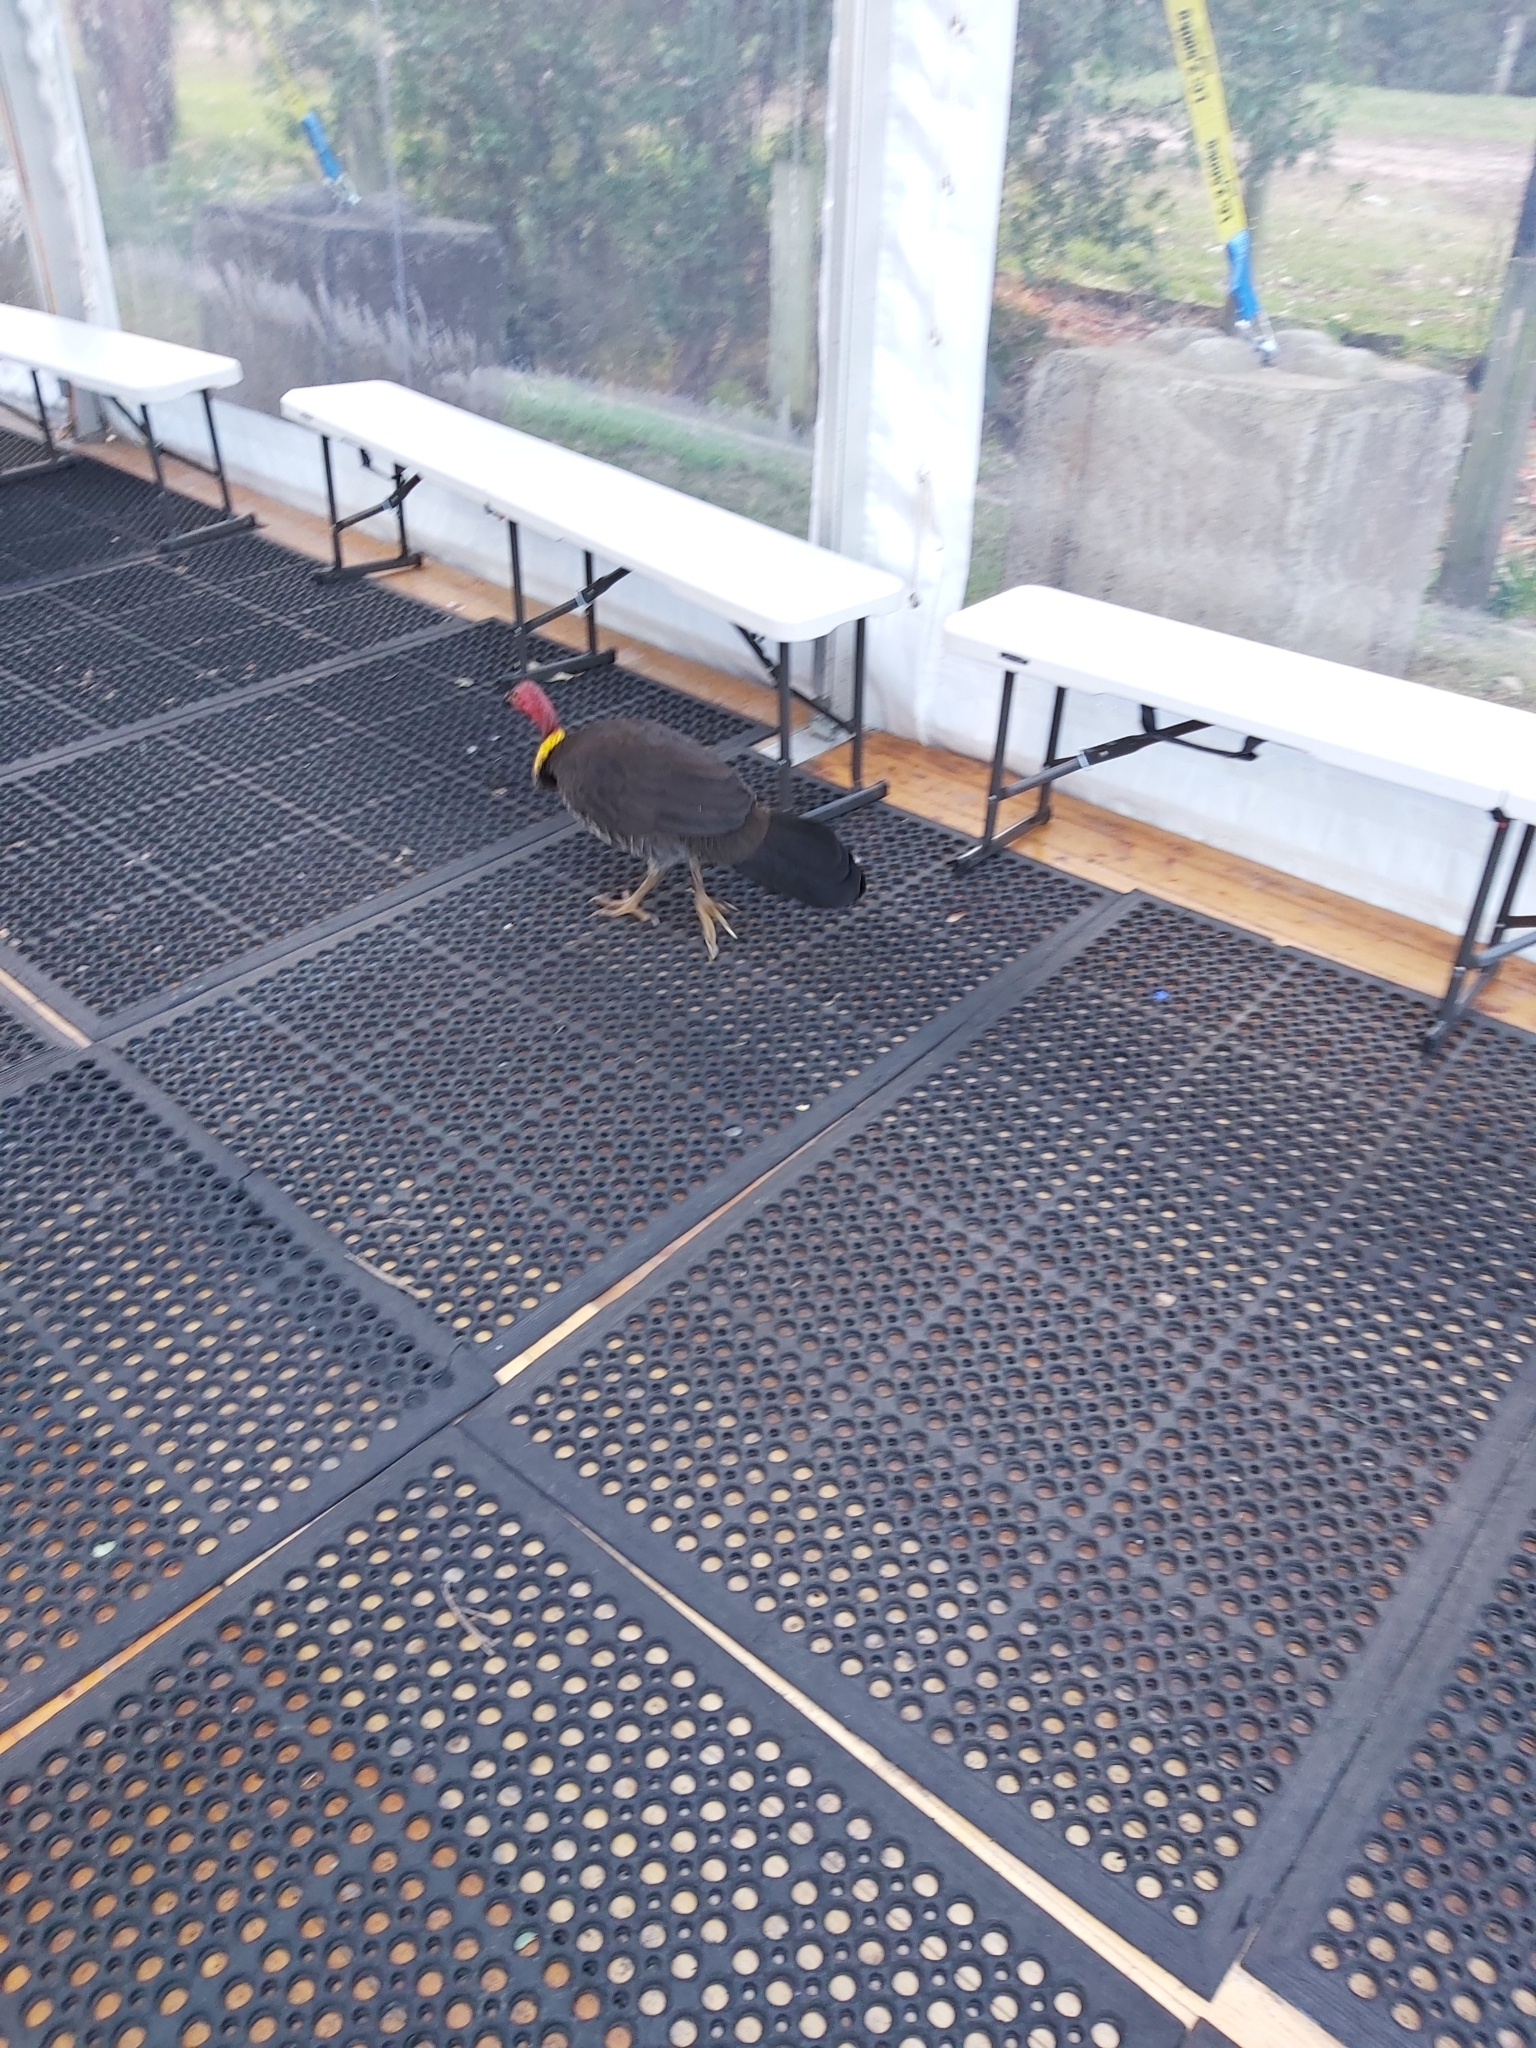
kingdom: Animalia
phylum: Chordata
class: Aves
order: Galliformes
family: Megapodiidae
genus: Alectura
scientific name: Alectura lathami
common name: Australian brushturkey
